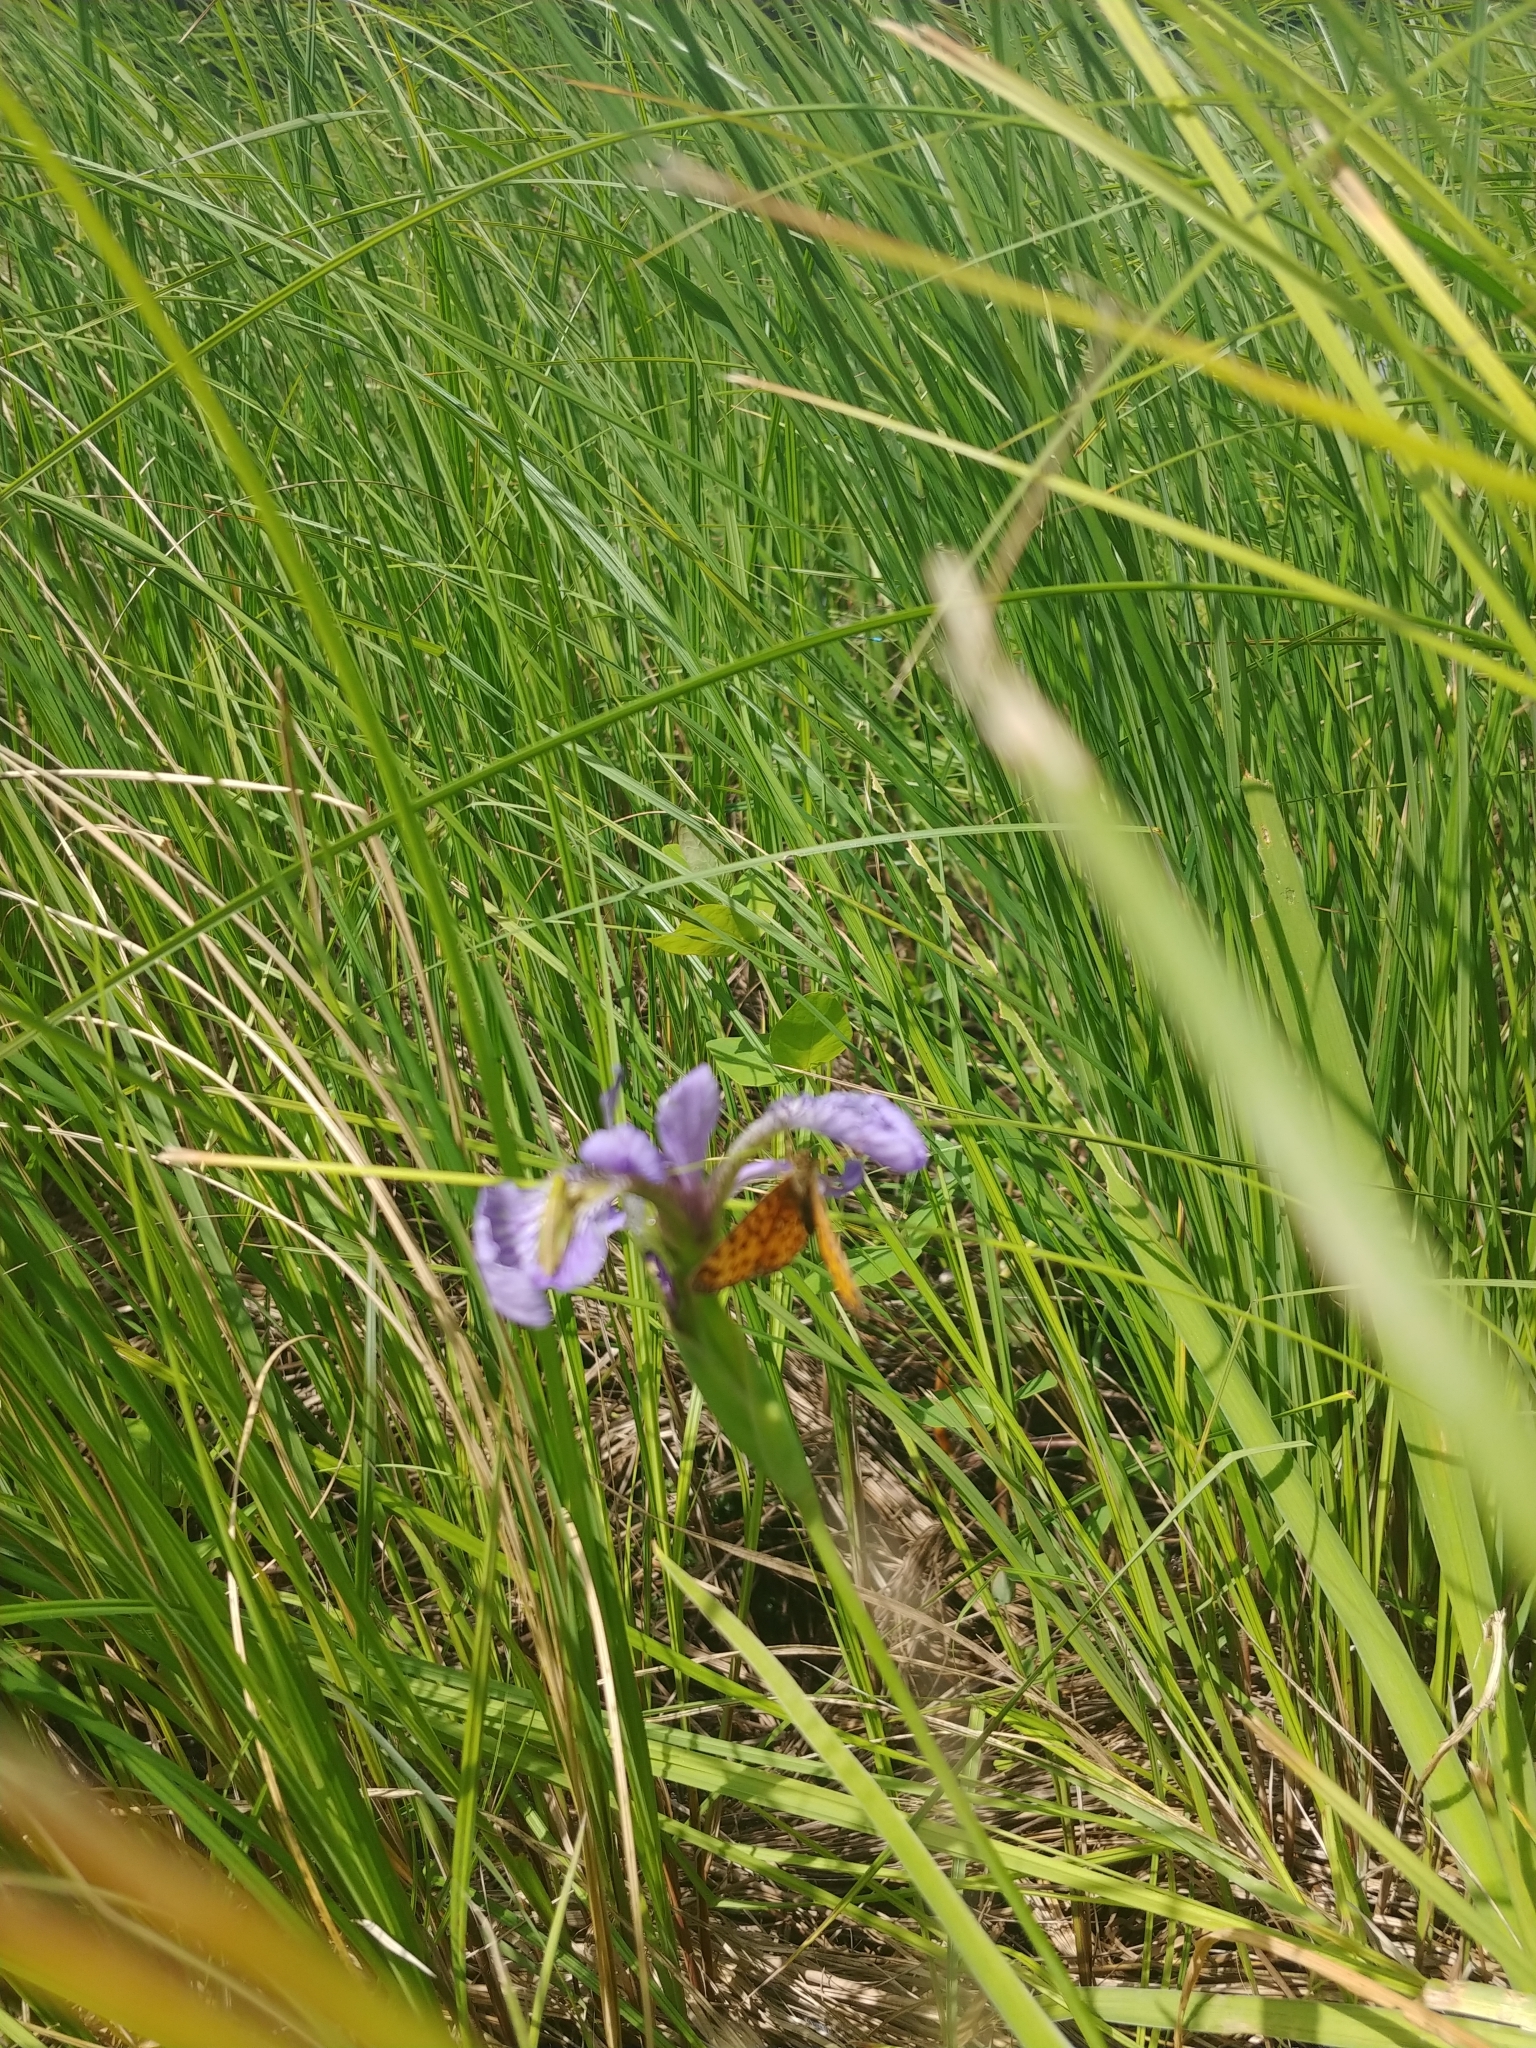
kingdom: Animalia
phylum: Arthropoda
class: Insecta
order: Lepidoptera
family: Nymphalidae
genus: Boloria
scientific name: Boloria
